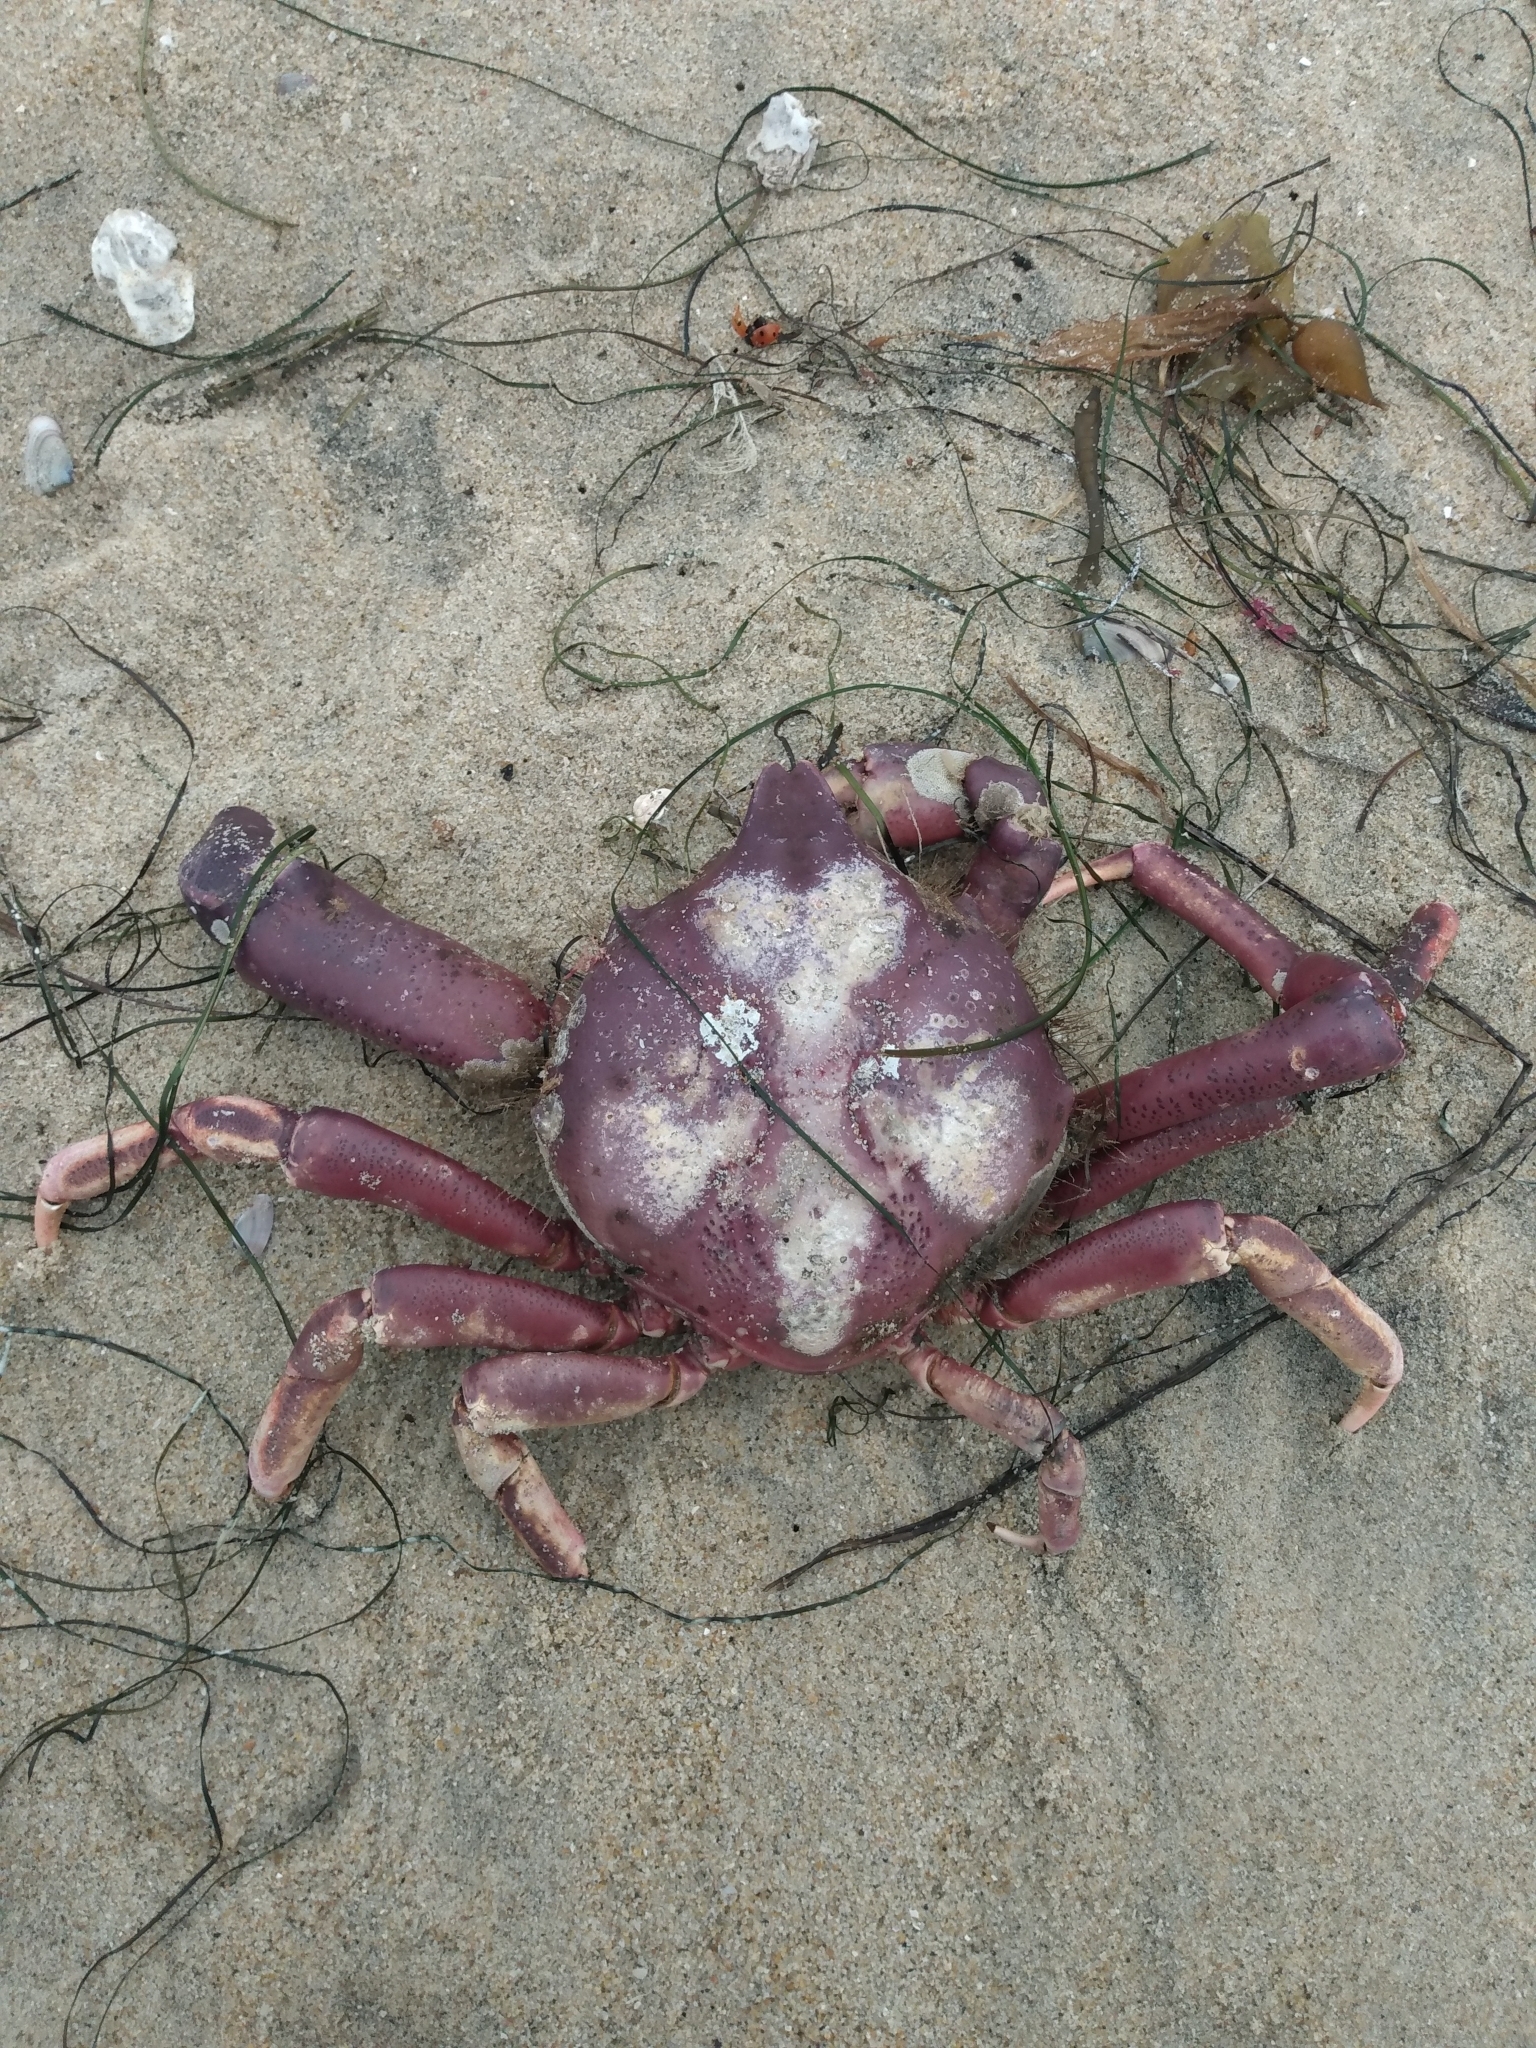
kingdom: Animalia
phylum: Arthropoda
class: Malacostraca
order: Decapoda
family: Epialtidae
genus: Taliepus
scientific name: Taliepus nuttallii
